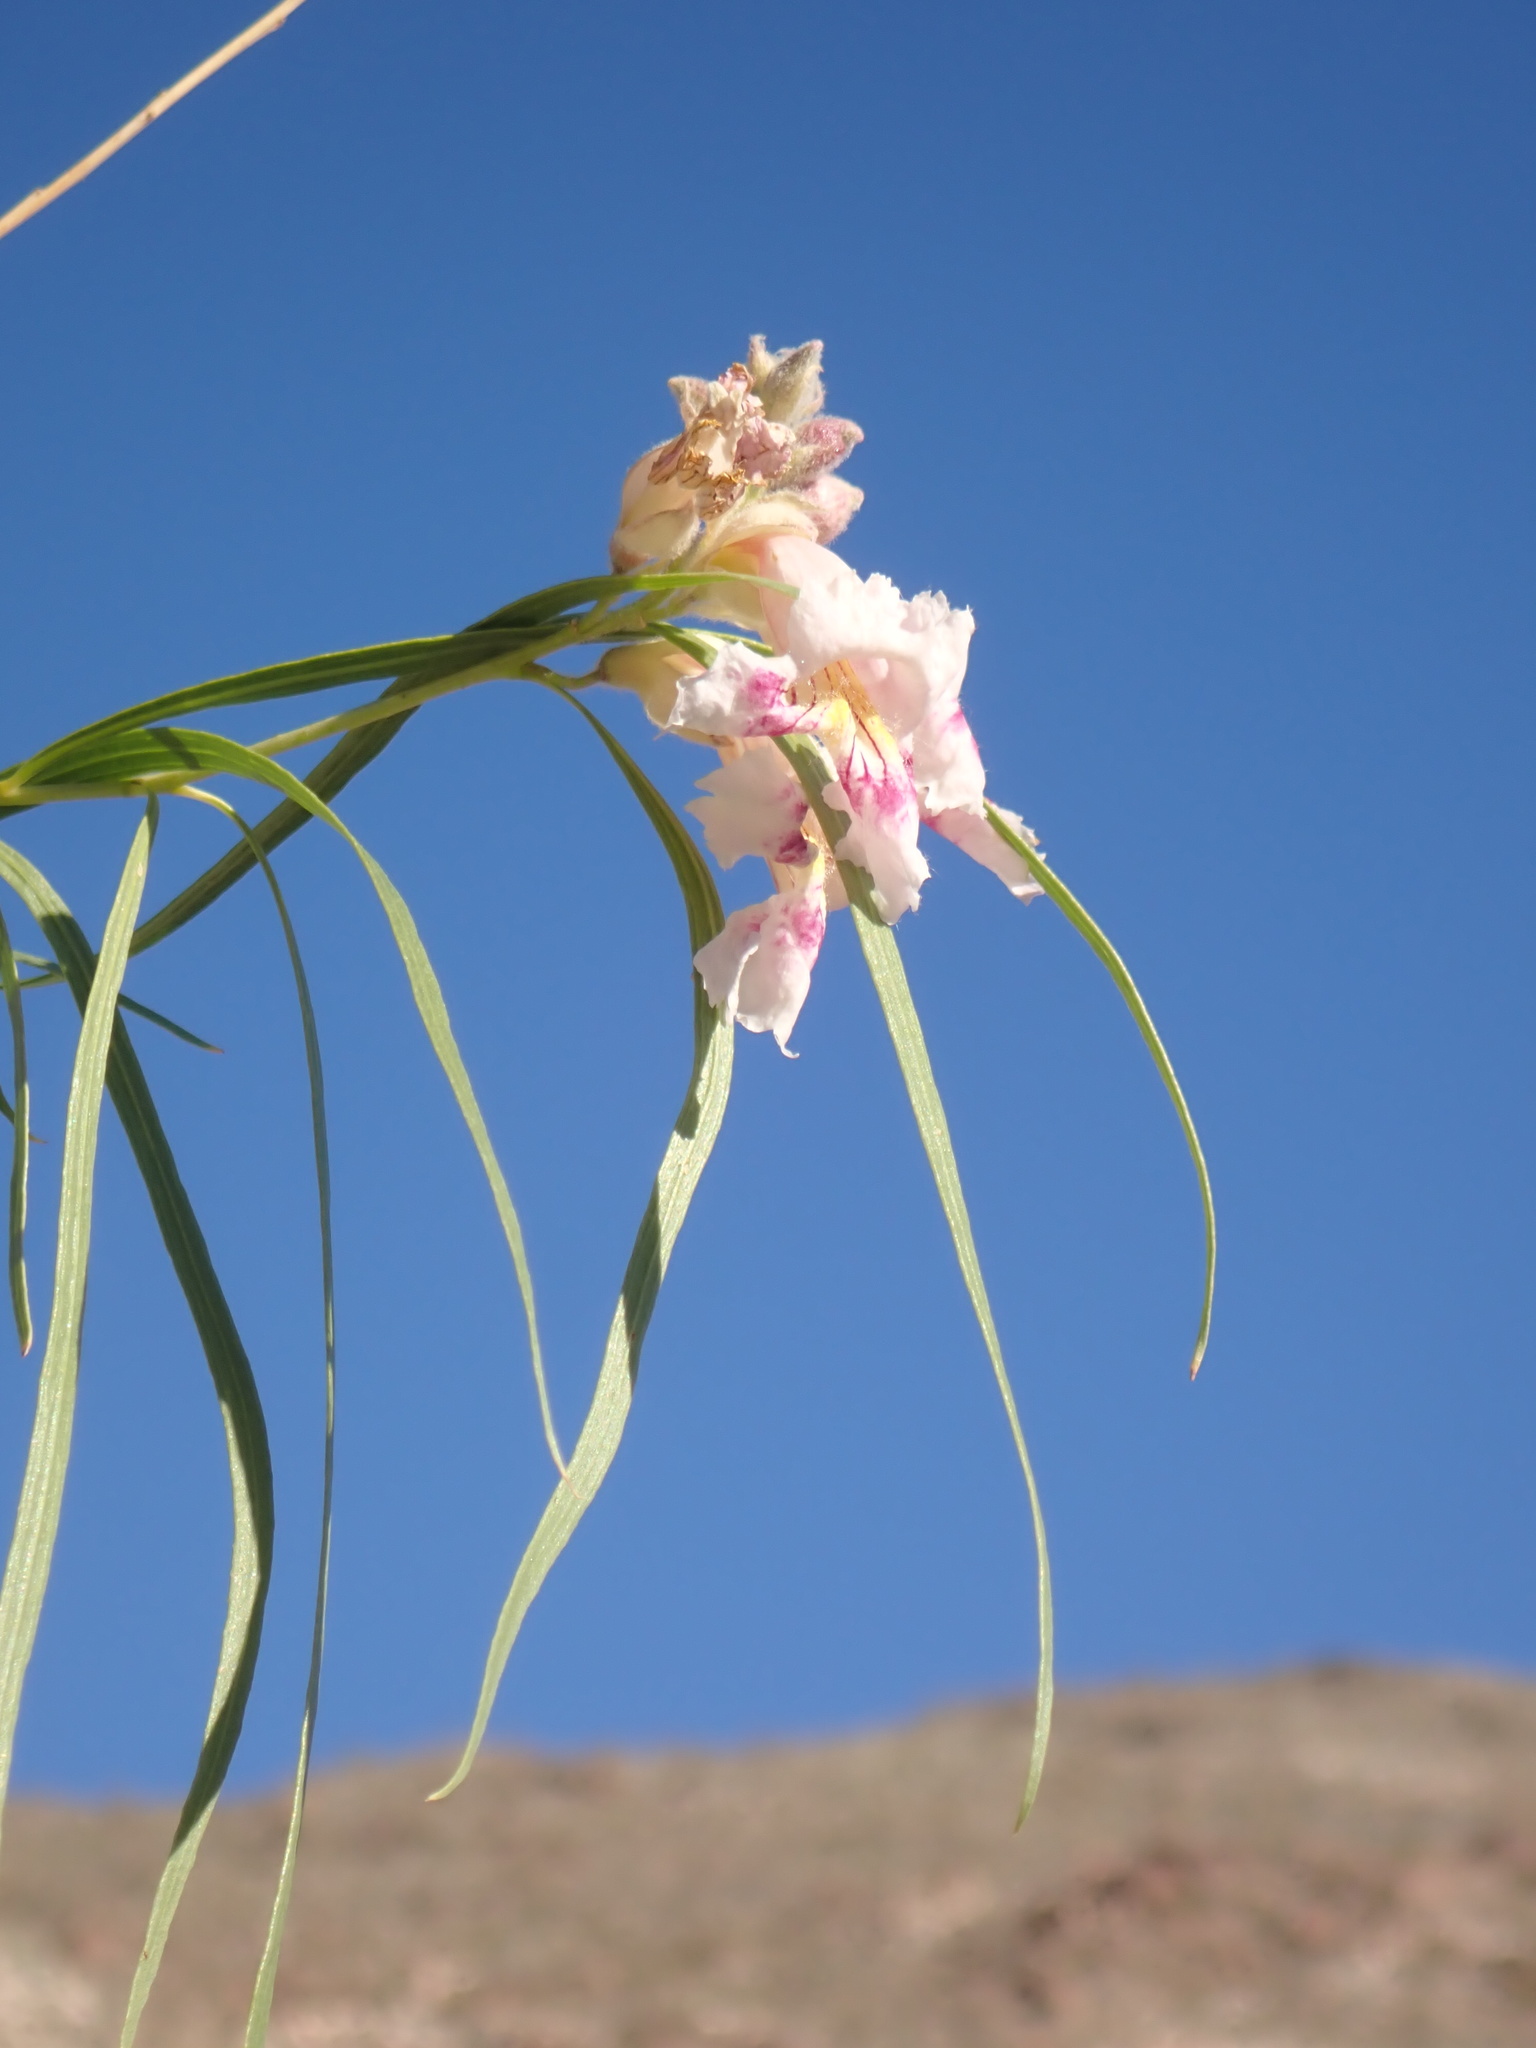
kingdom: Plantae
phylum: Tracheophyta
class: Magnoliopsida
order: Lamiales
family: Bignoniaceae
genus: Chilopsis
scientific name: Chilopsis linearis
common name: Desert-willow
